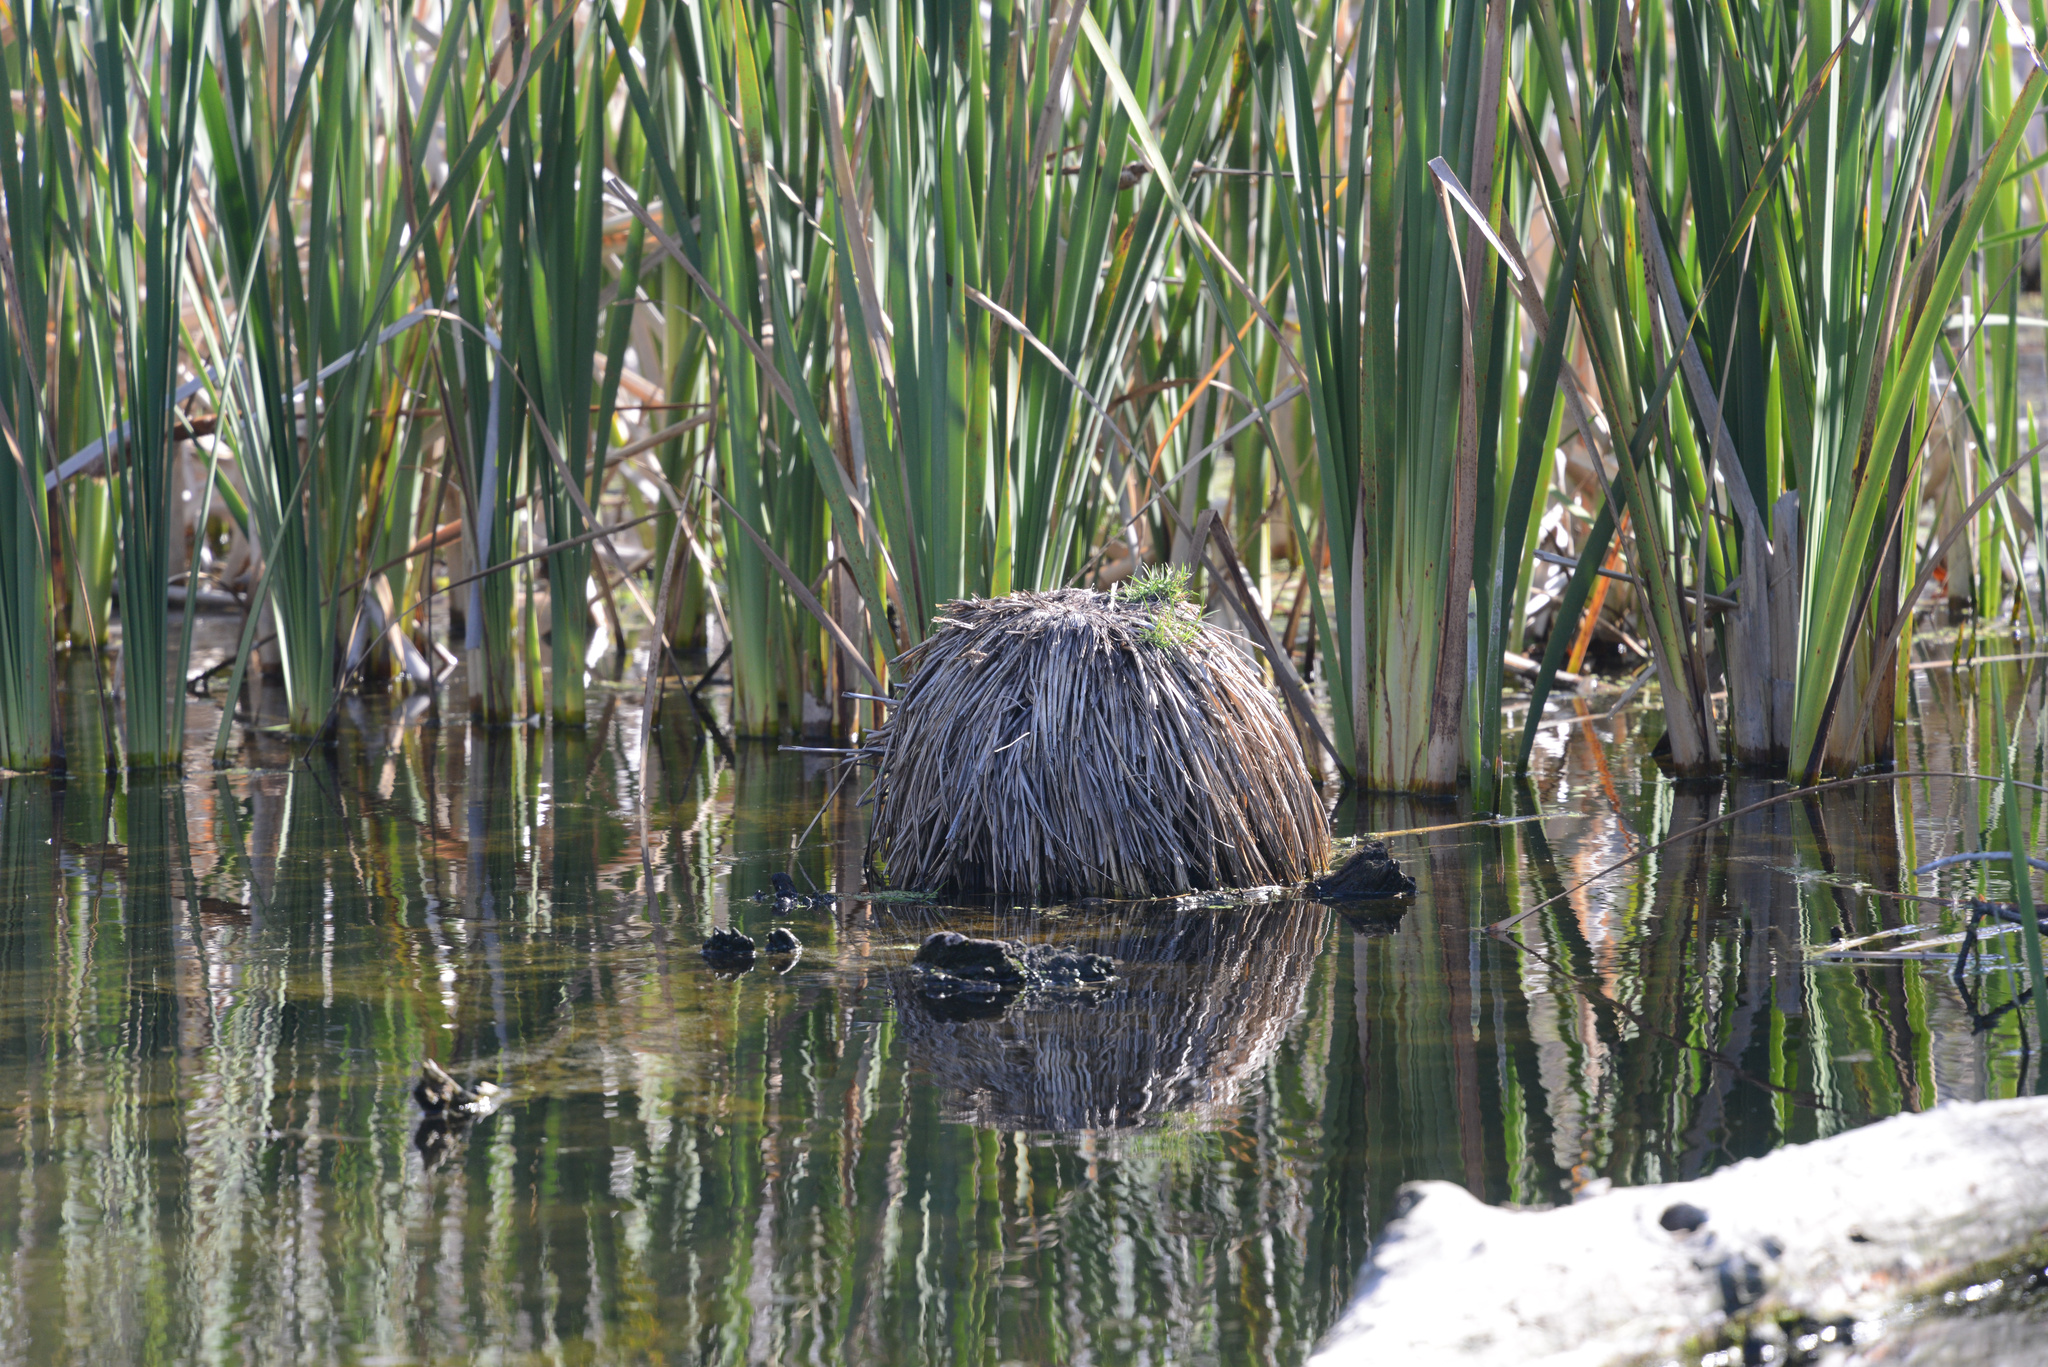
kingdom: Plantae
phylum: Tracheophyta
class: Liliopsida
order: Poales
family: Cyperaceae
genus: Carex
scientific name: Carex secta
